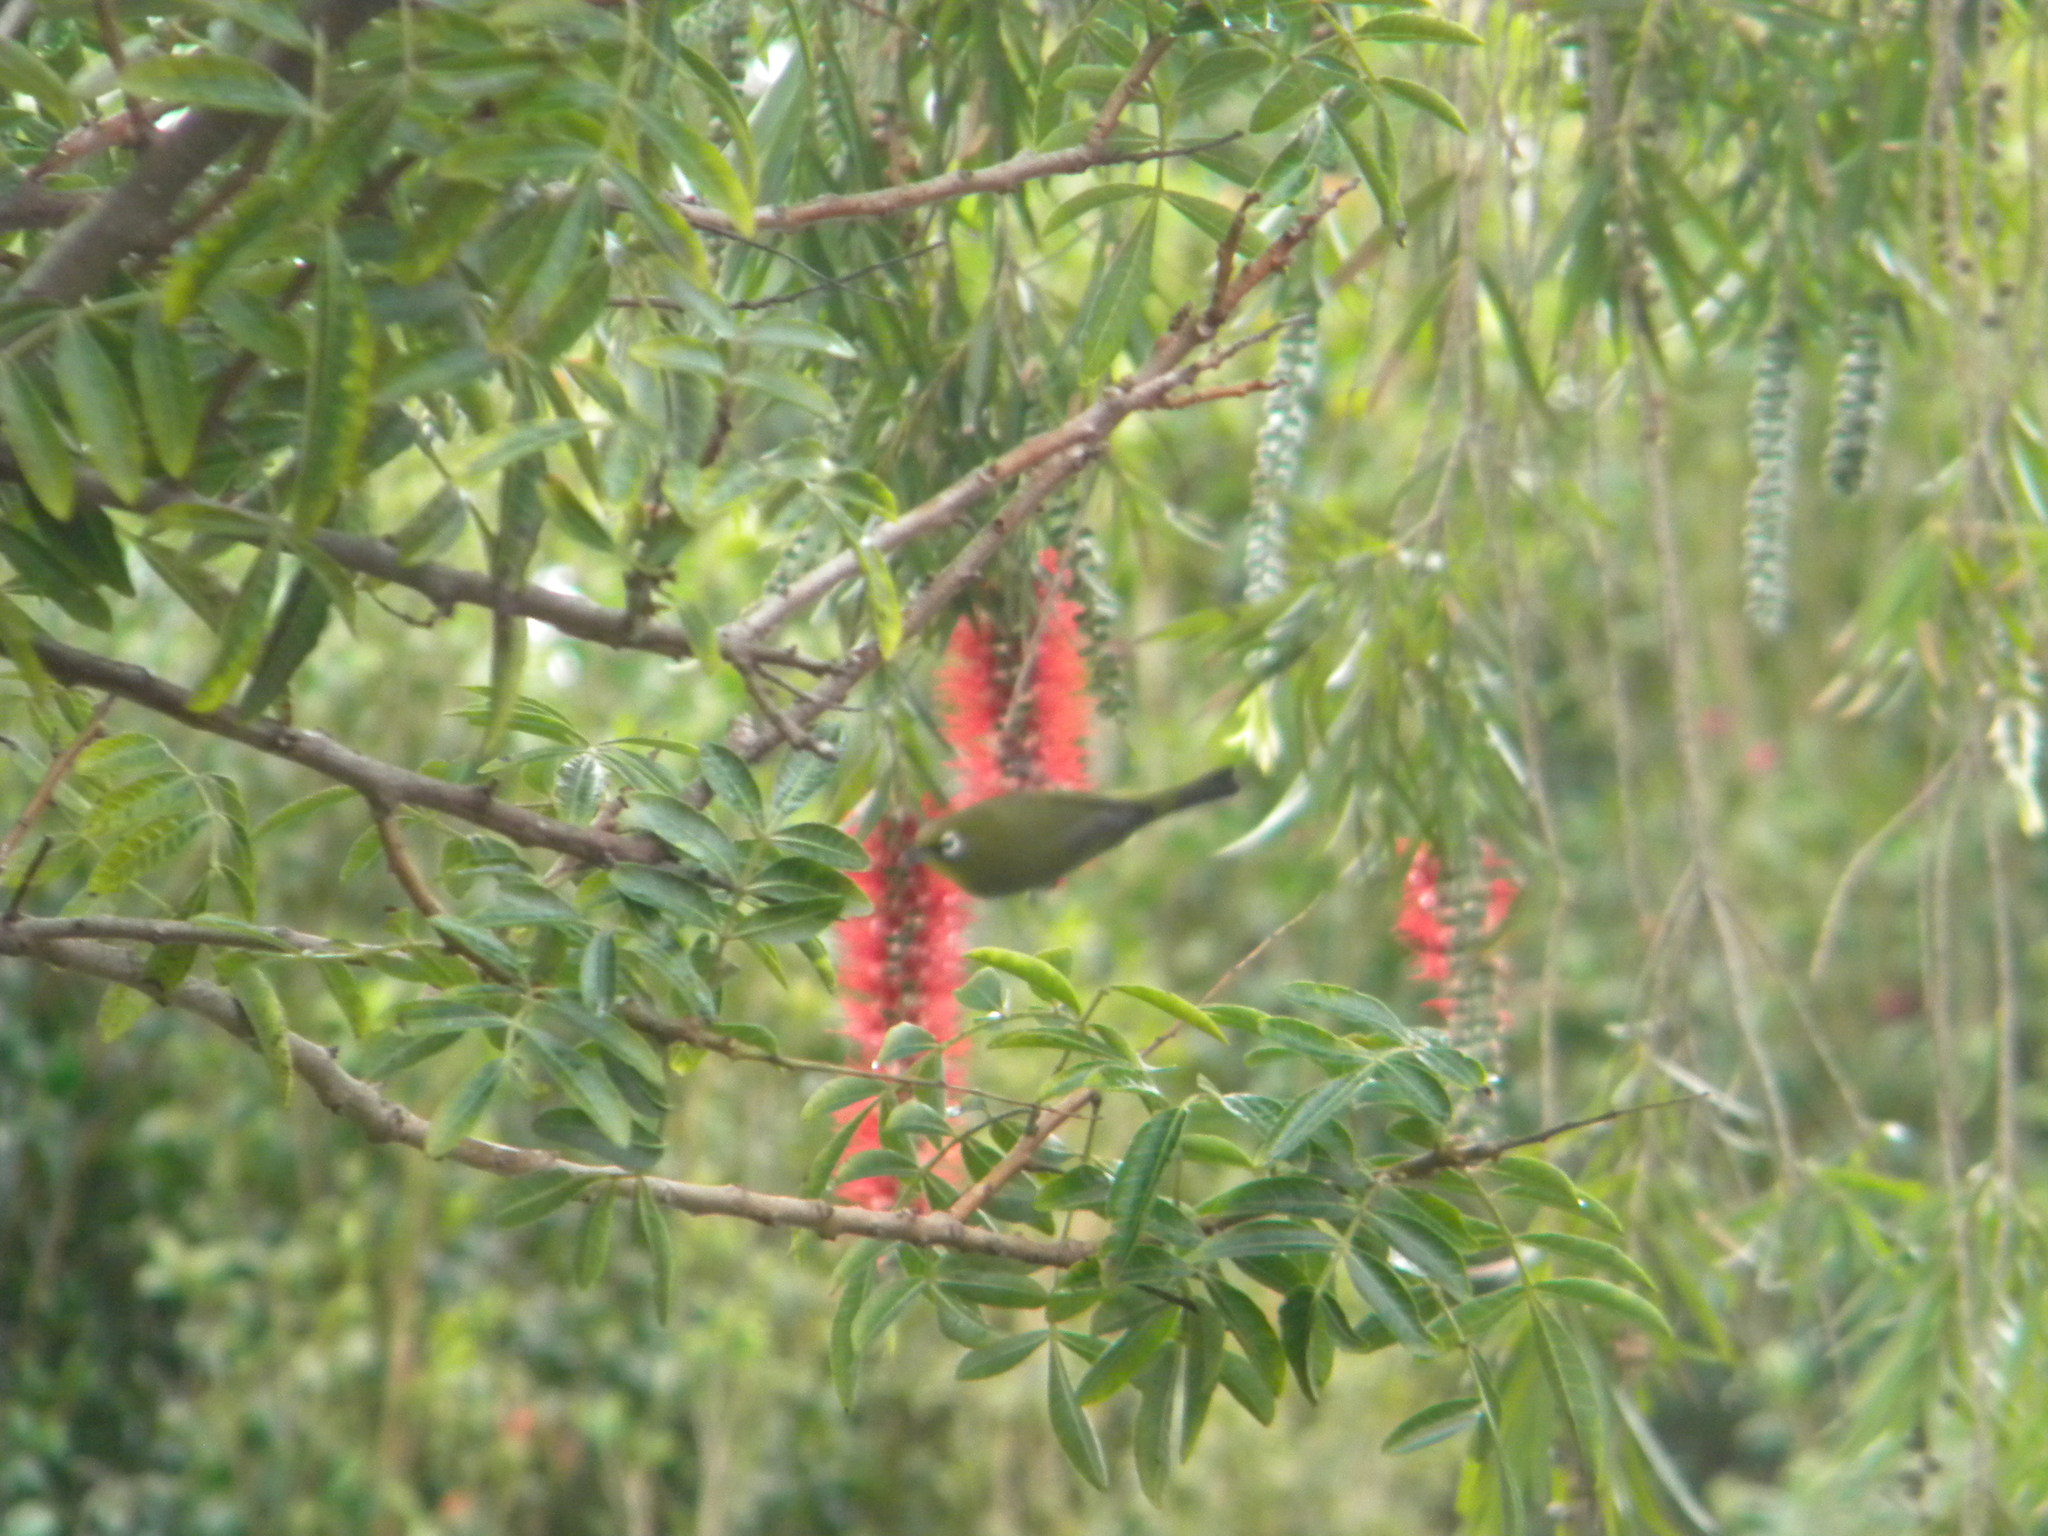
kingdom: Animalia
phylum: Chordata
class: Aves
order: Passeriformes
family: Zosteropidae
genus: Zosterops
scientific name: Zosterops virens
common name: Cape white-eye
